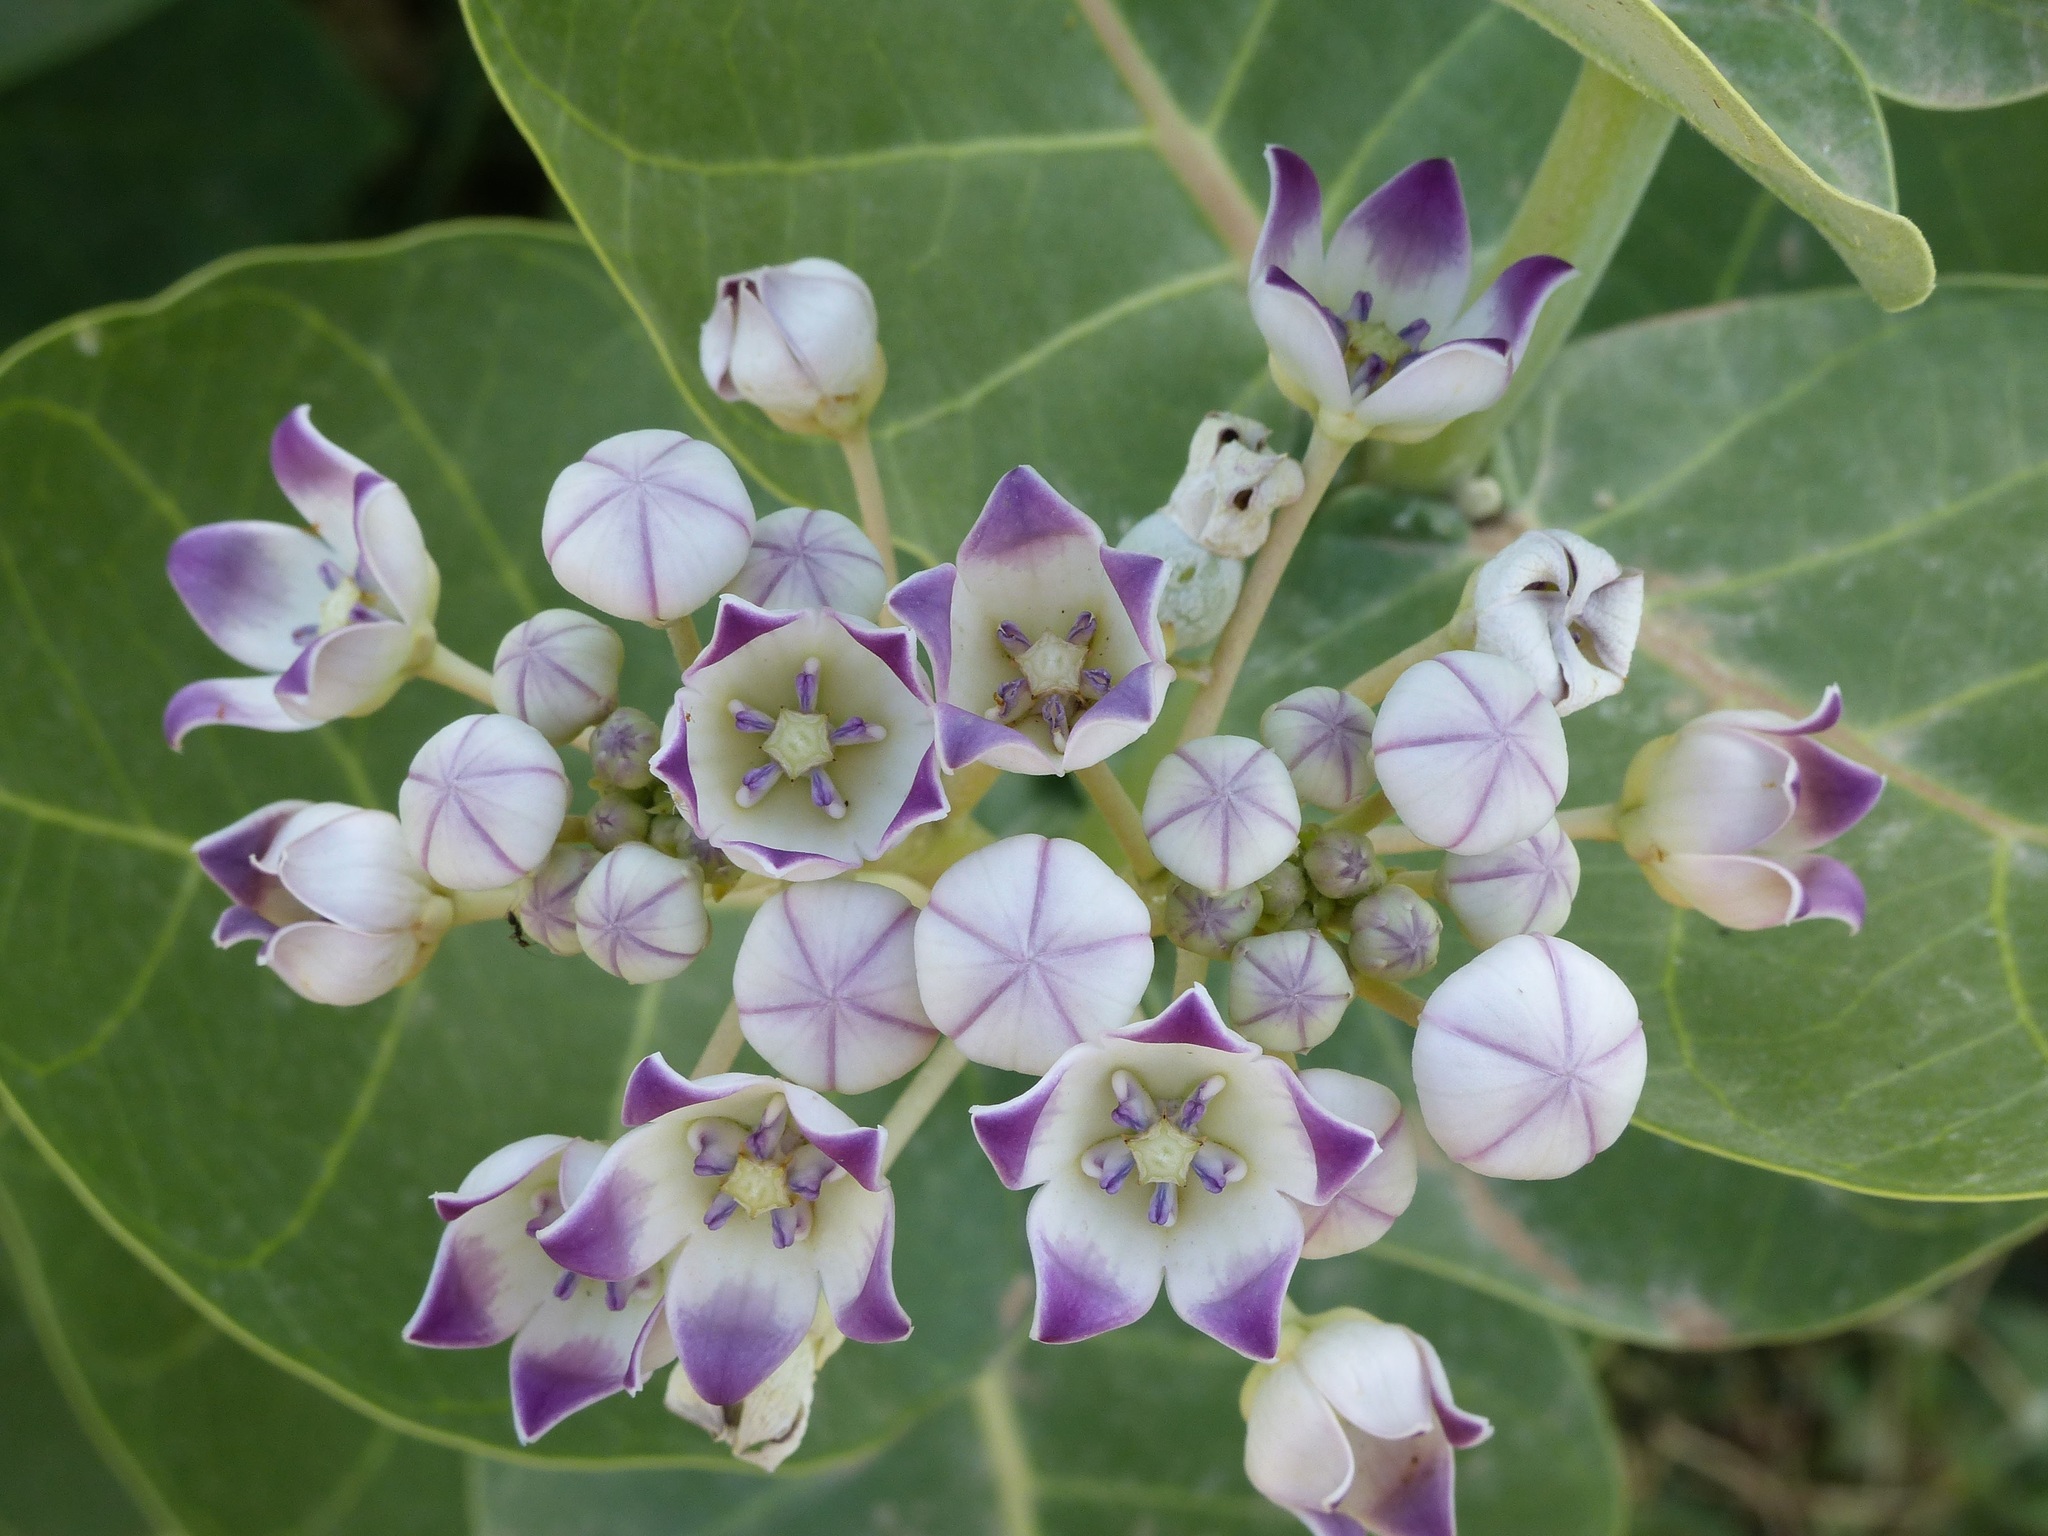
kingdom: Plantae
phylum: Tracheophyta
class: Magnoliopsida
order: Gentianales
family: Apocynaceae
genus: Calotropis
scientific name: Calotropis procera
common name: Roostertree
